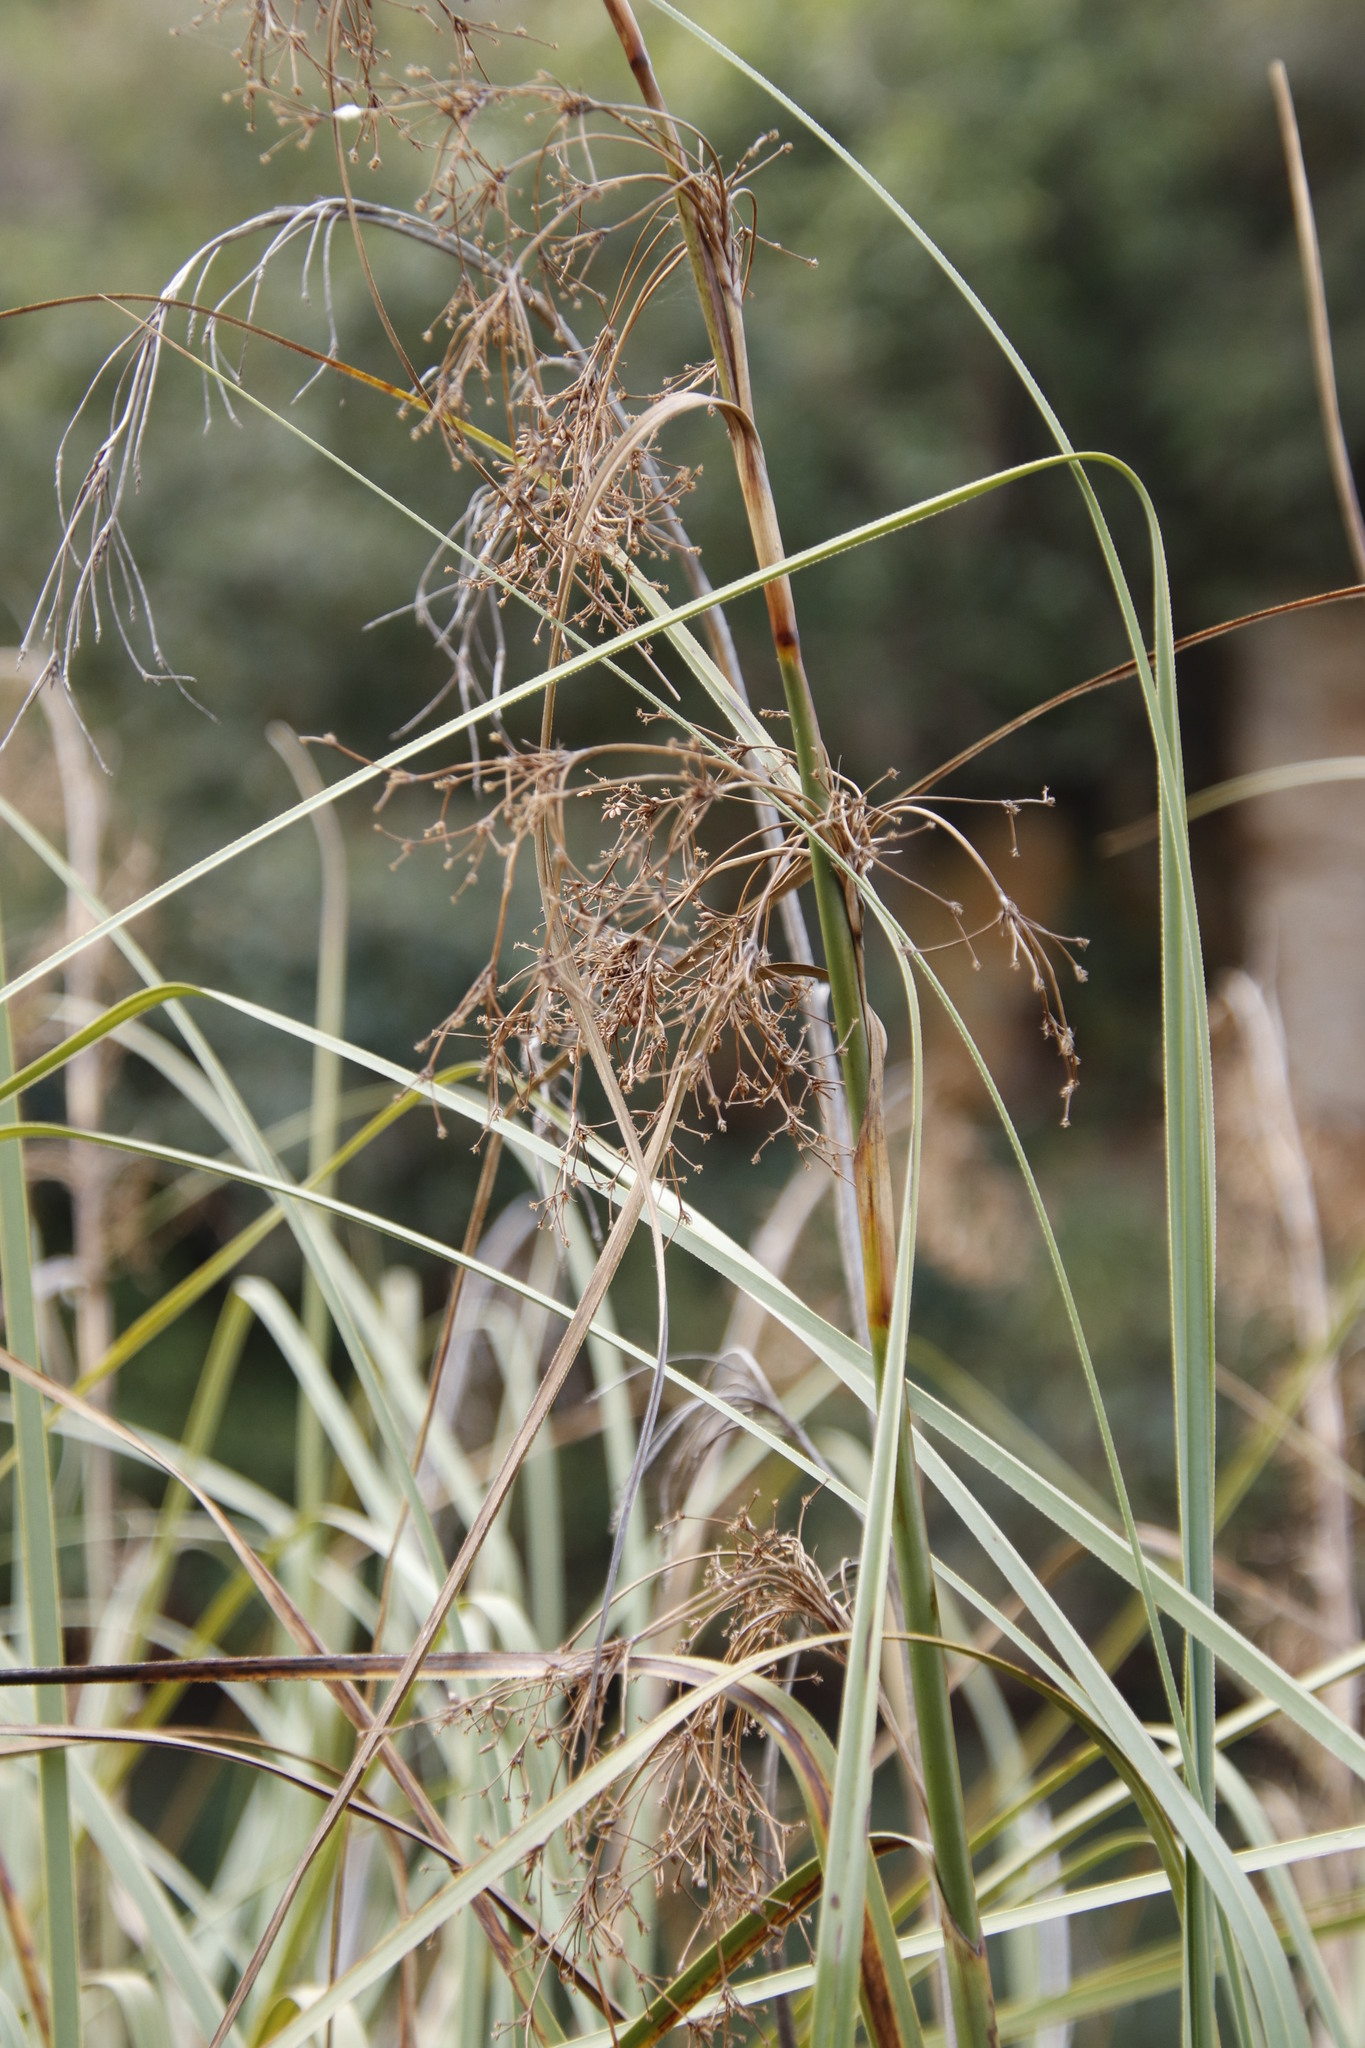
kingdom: Plantae
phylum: Tracheophyta
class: Liliopsida
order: Poales
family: Cyperaceae
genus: Cladium
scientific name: Cladium mariscus
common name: Great fen-sedge
